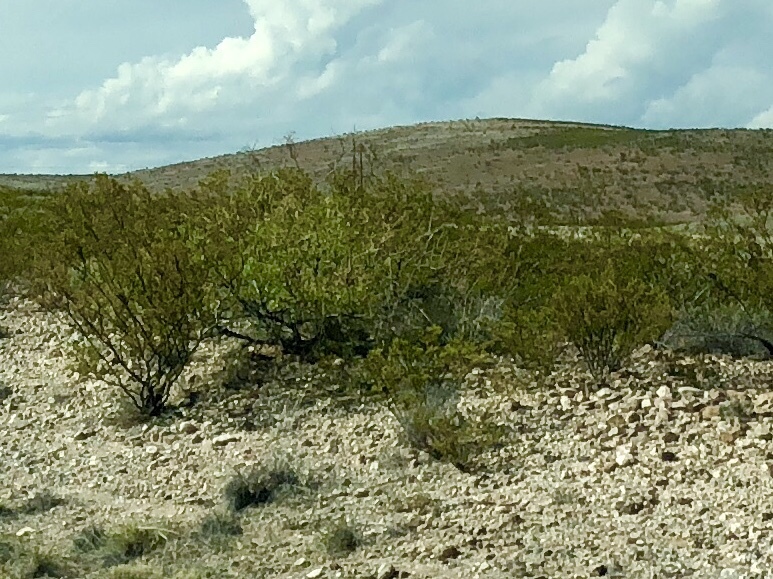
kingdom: Plantae
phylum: Tracheophyta
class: Magnoliopsida
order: Zygophyllales
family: Zygophyllaceae
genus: Larrea
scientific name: Larrea tridentata
